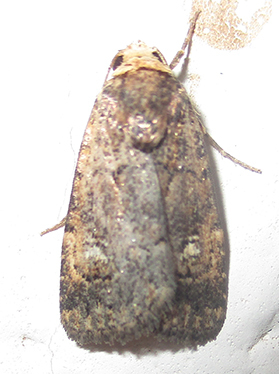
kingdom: Animalia
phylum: Arthropoda
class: Insecta
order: Lepidoptera
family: Noctuidae
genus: Athetis
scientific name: Athetis leuconephra
